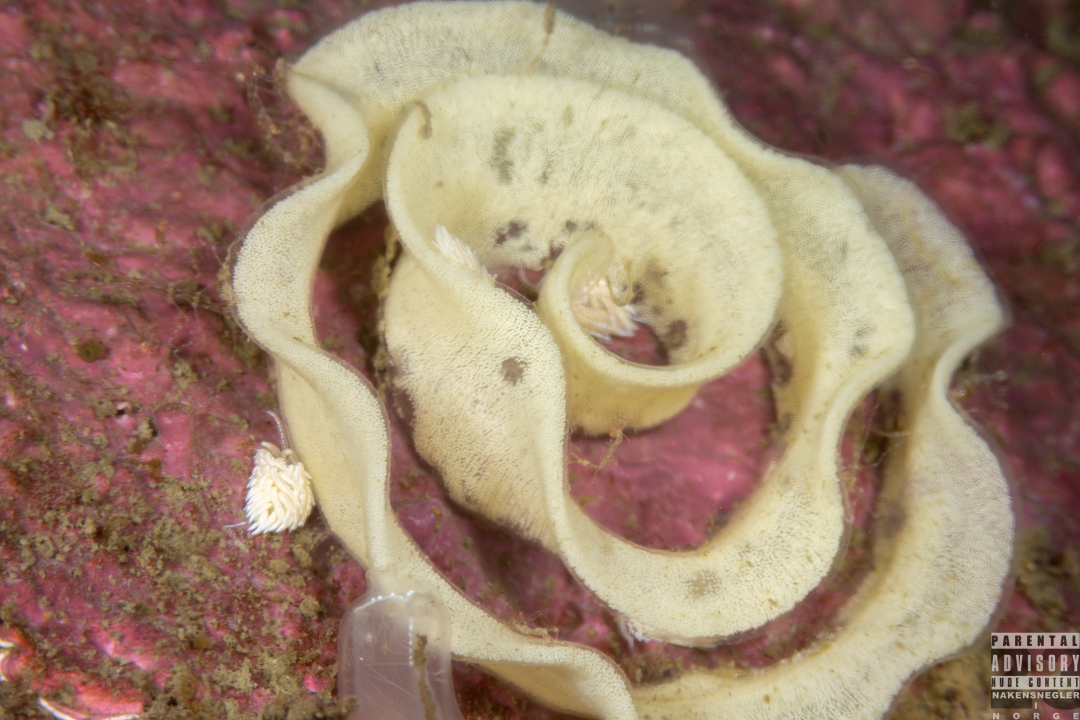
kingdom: Animalia
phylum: Mollusca
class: Gastropoda
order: Nudibranchia
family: Facelinidae
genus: Favorinus
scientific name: Favorinus blianus
